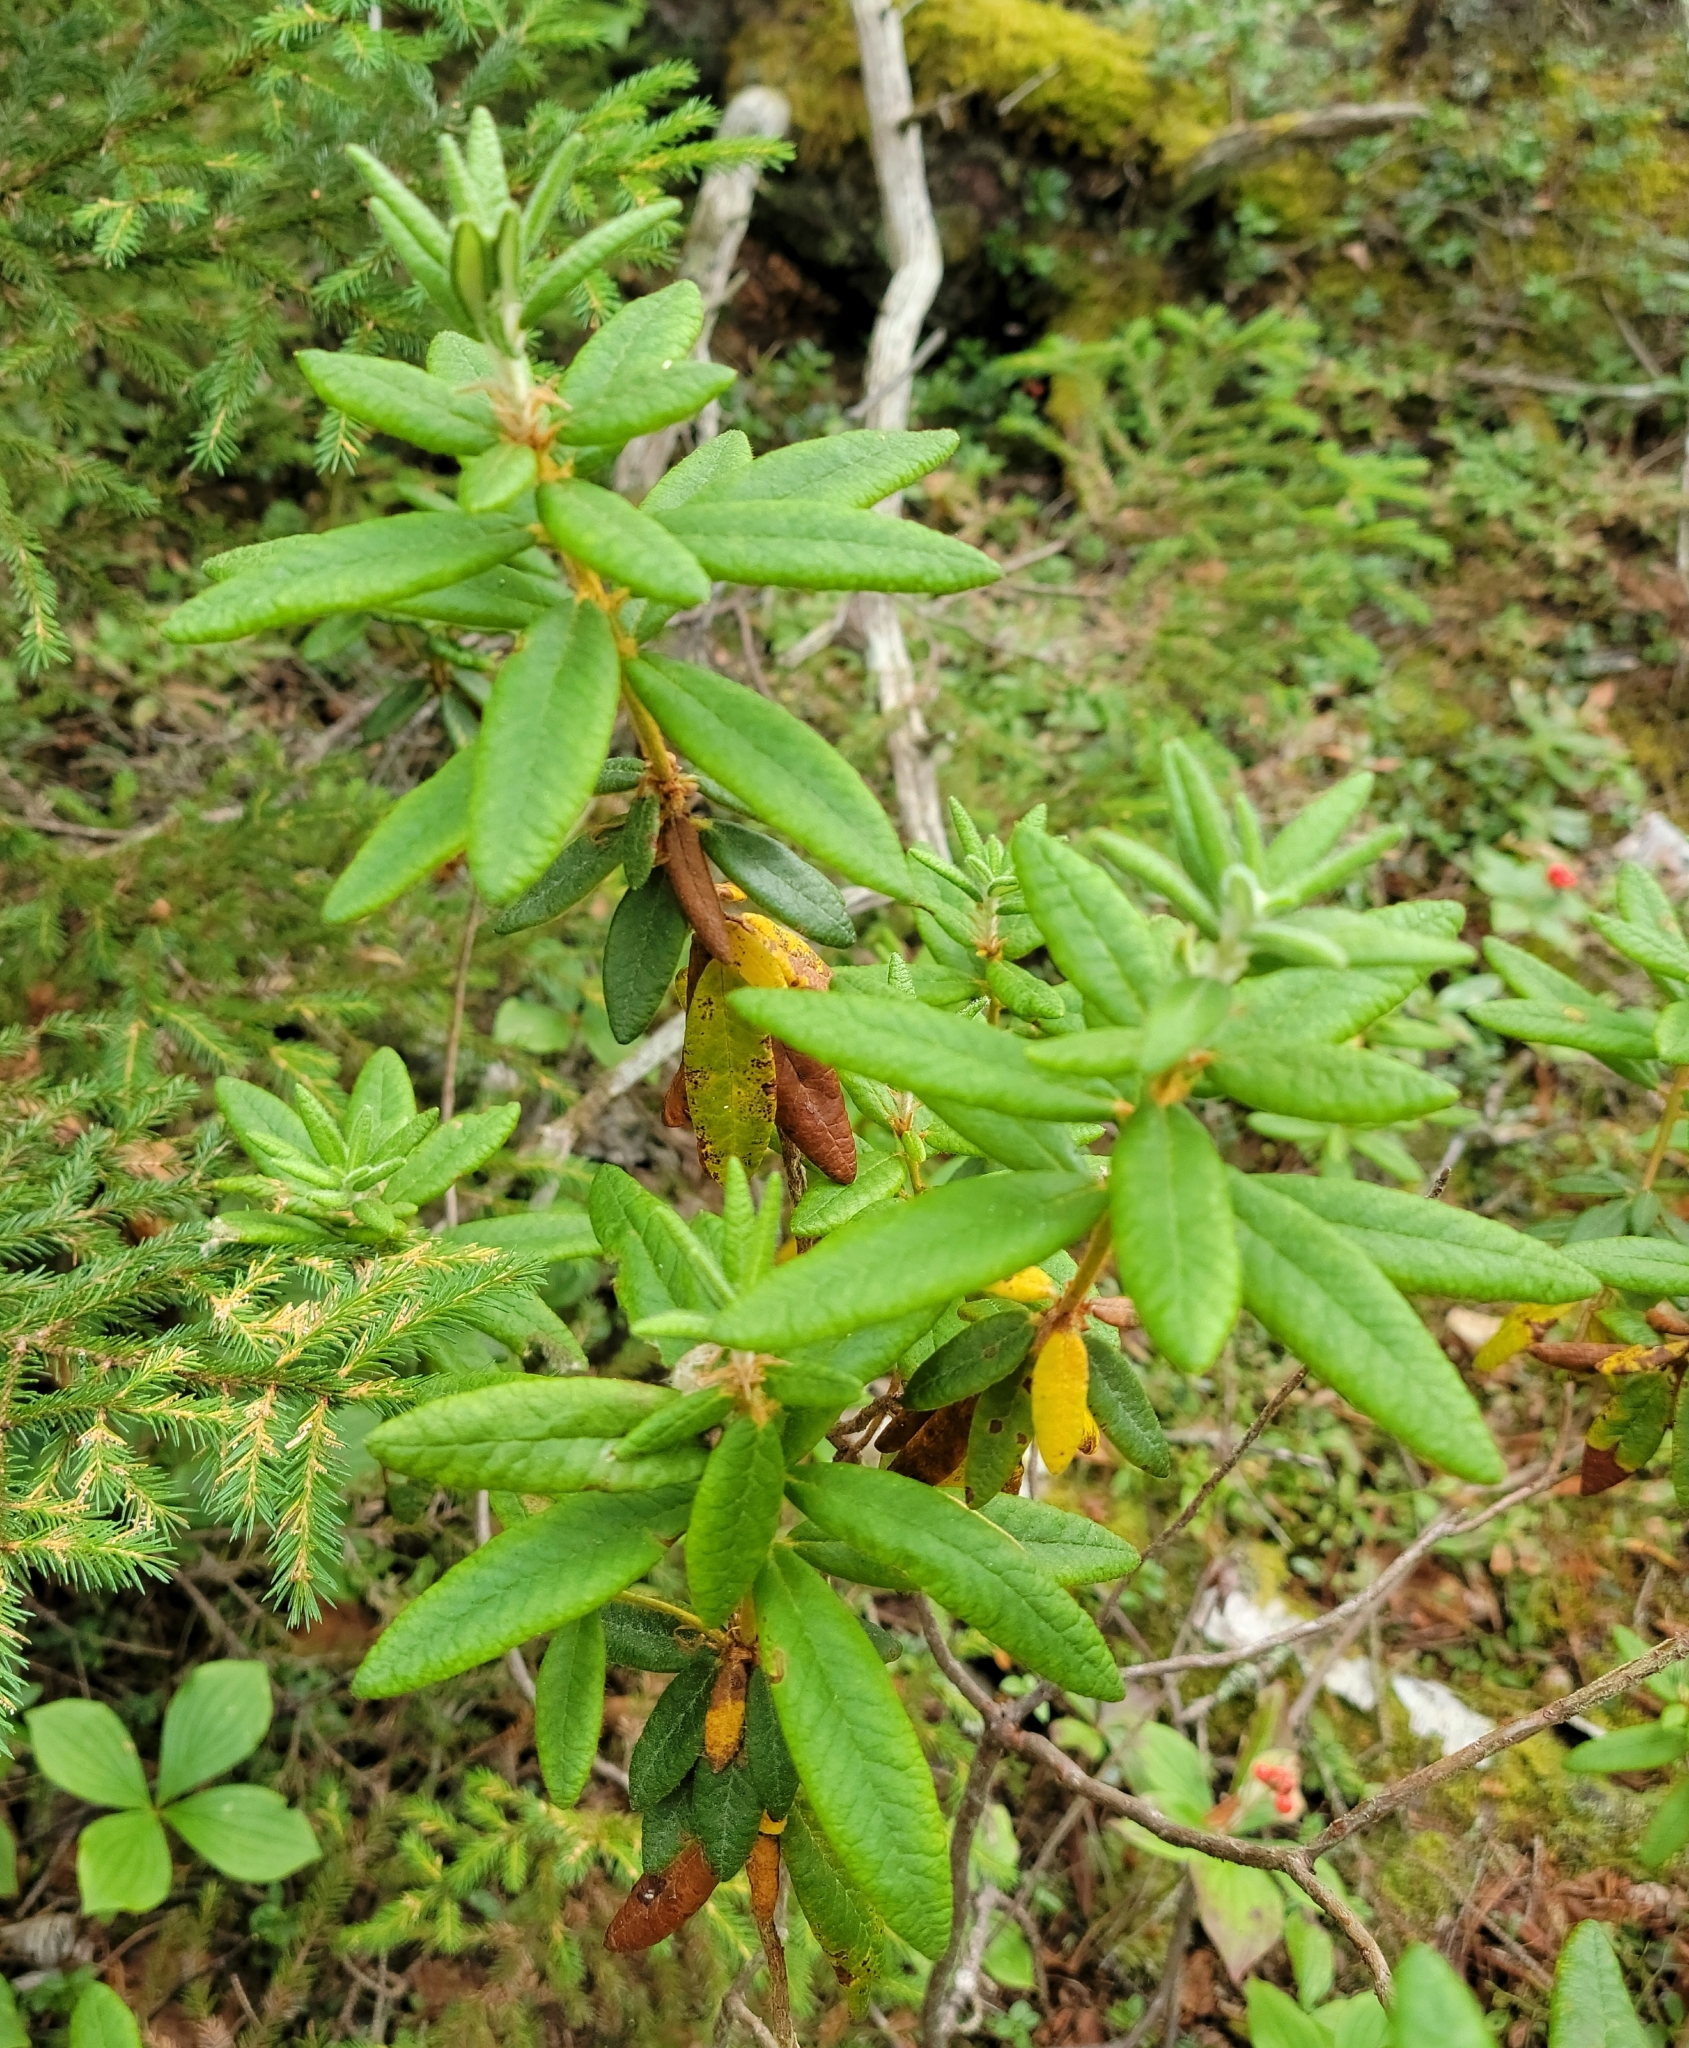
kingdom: Plantae
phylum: Tracheophyta
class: Magnoliopsida
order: Ericales
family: Ericaceae
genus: Rhododendron
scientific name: Rhododendron groenlandicum
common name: Bog labrador tea
